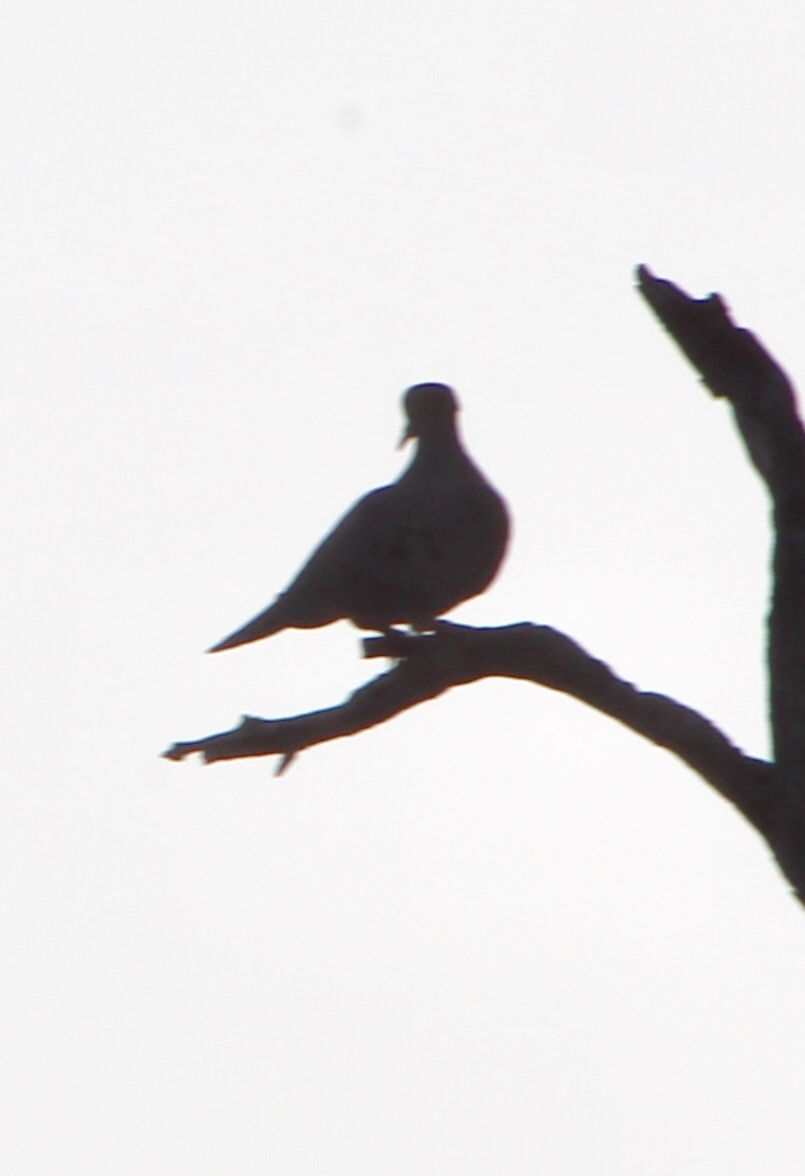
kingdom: Animalia
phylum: Chordata
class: Aves
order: Columbiformes
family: Columbidae
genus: Zenaida
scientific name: Zenaida macroura
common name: Mourning dove
